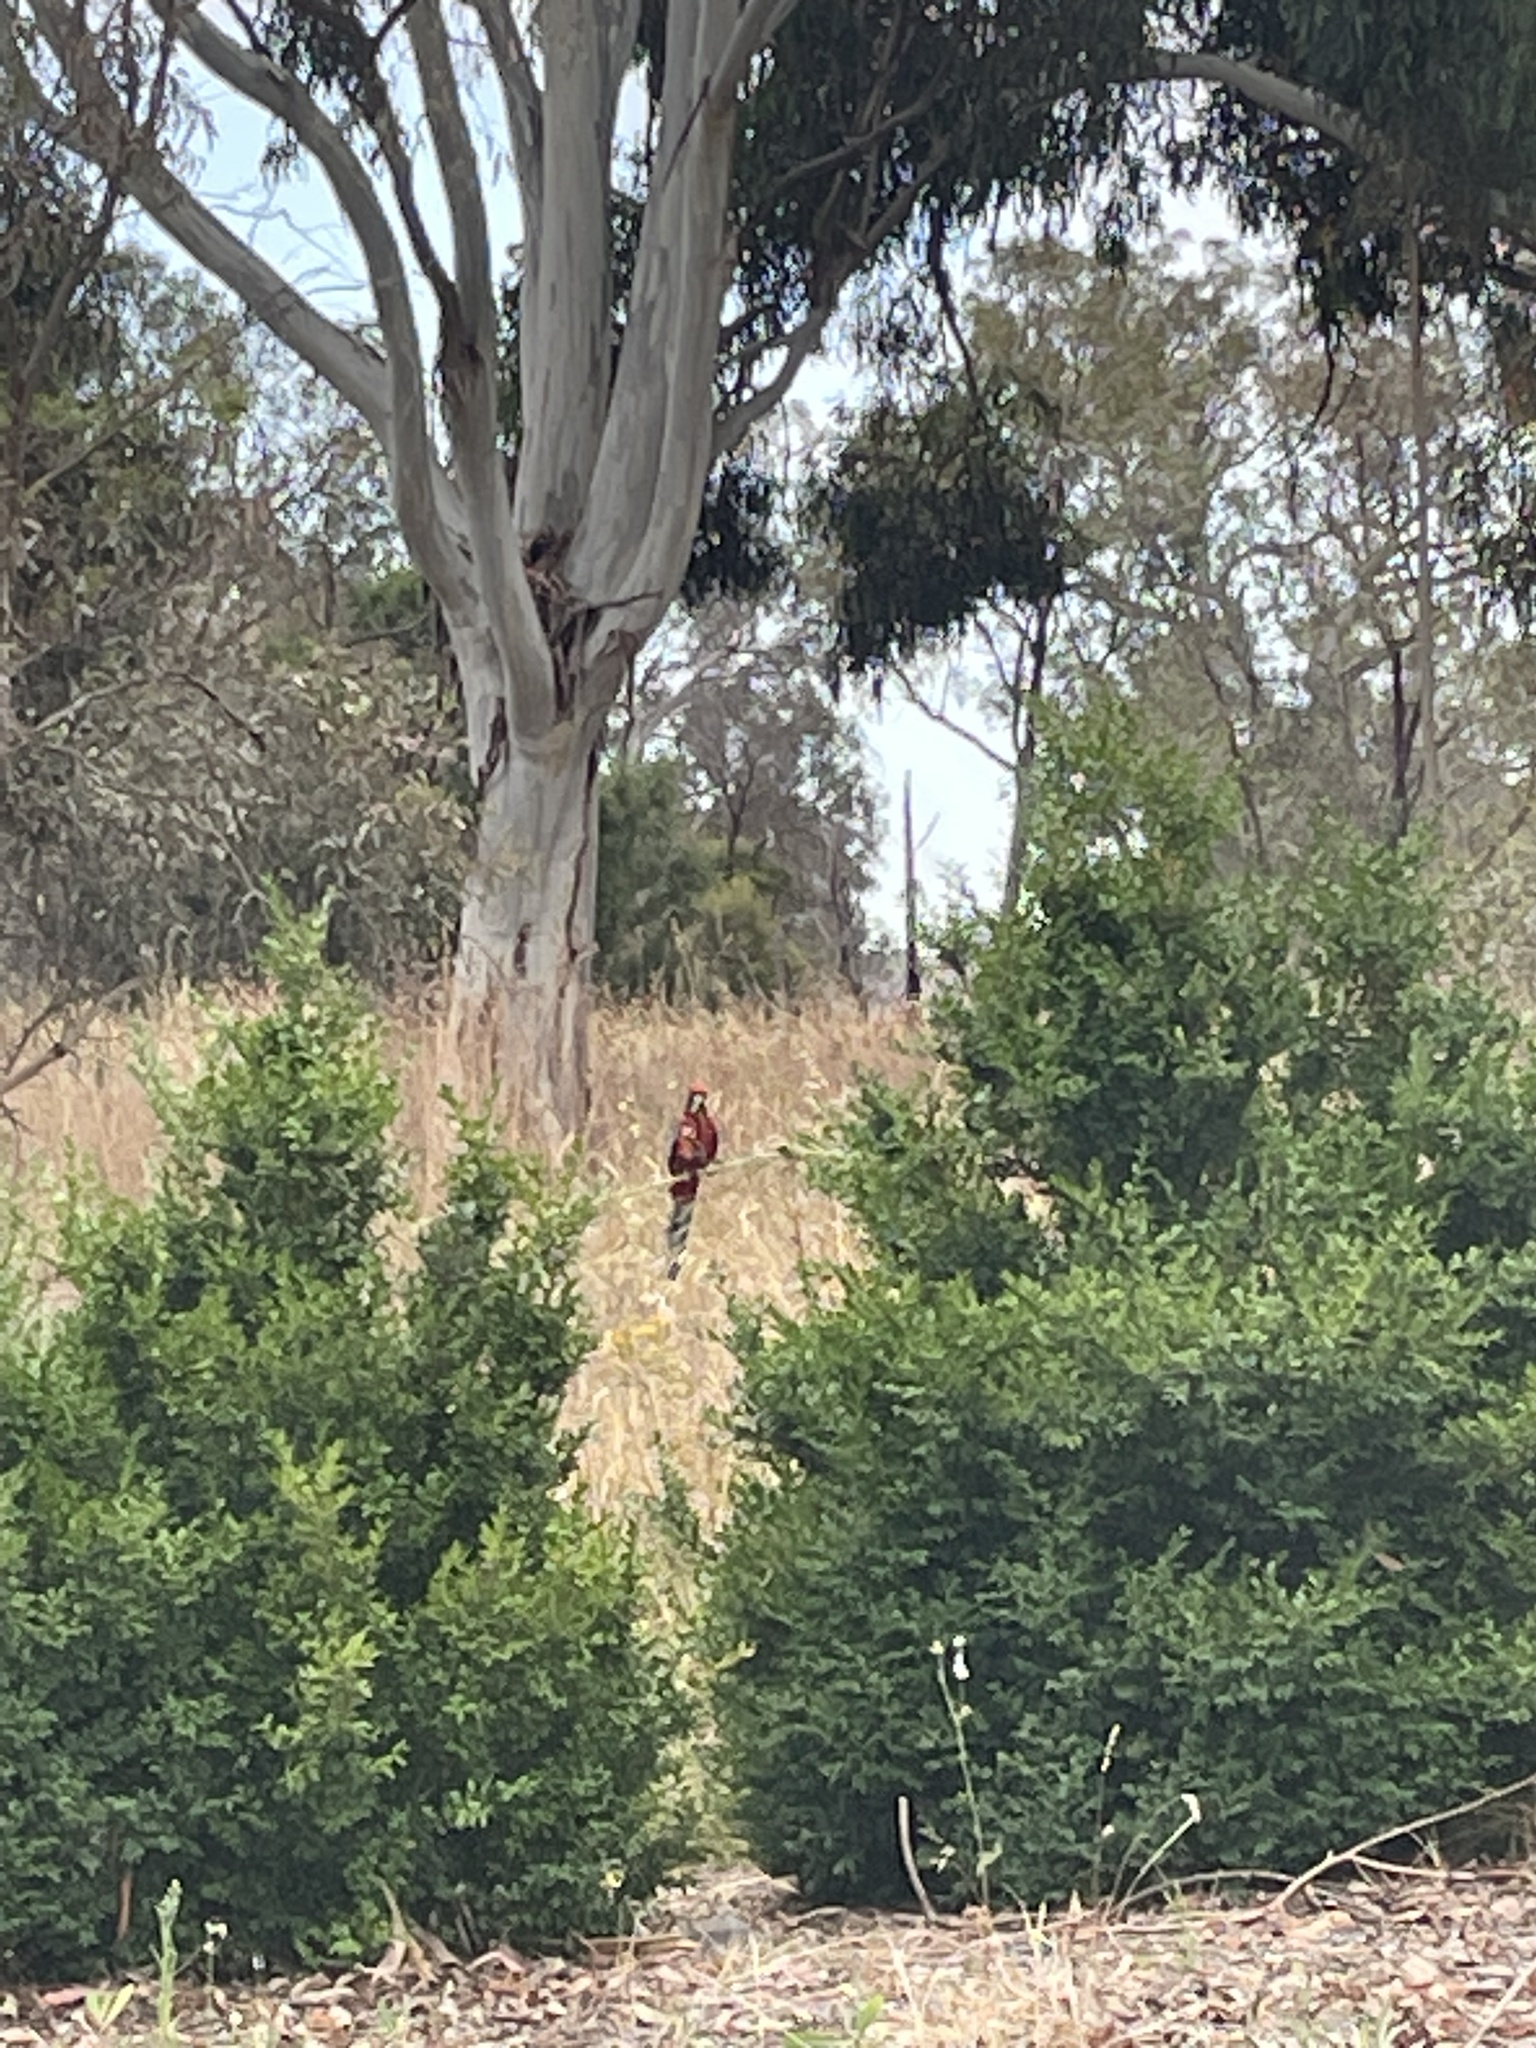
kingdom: Animalia
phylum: Chordata
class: Aves
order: Psittaciformes
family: Psittacidae
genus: Platycercus
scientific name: Platycercus elegans
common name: Crimson rosella
